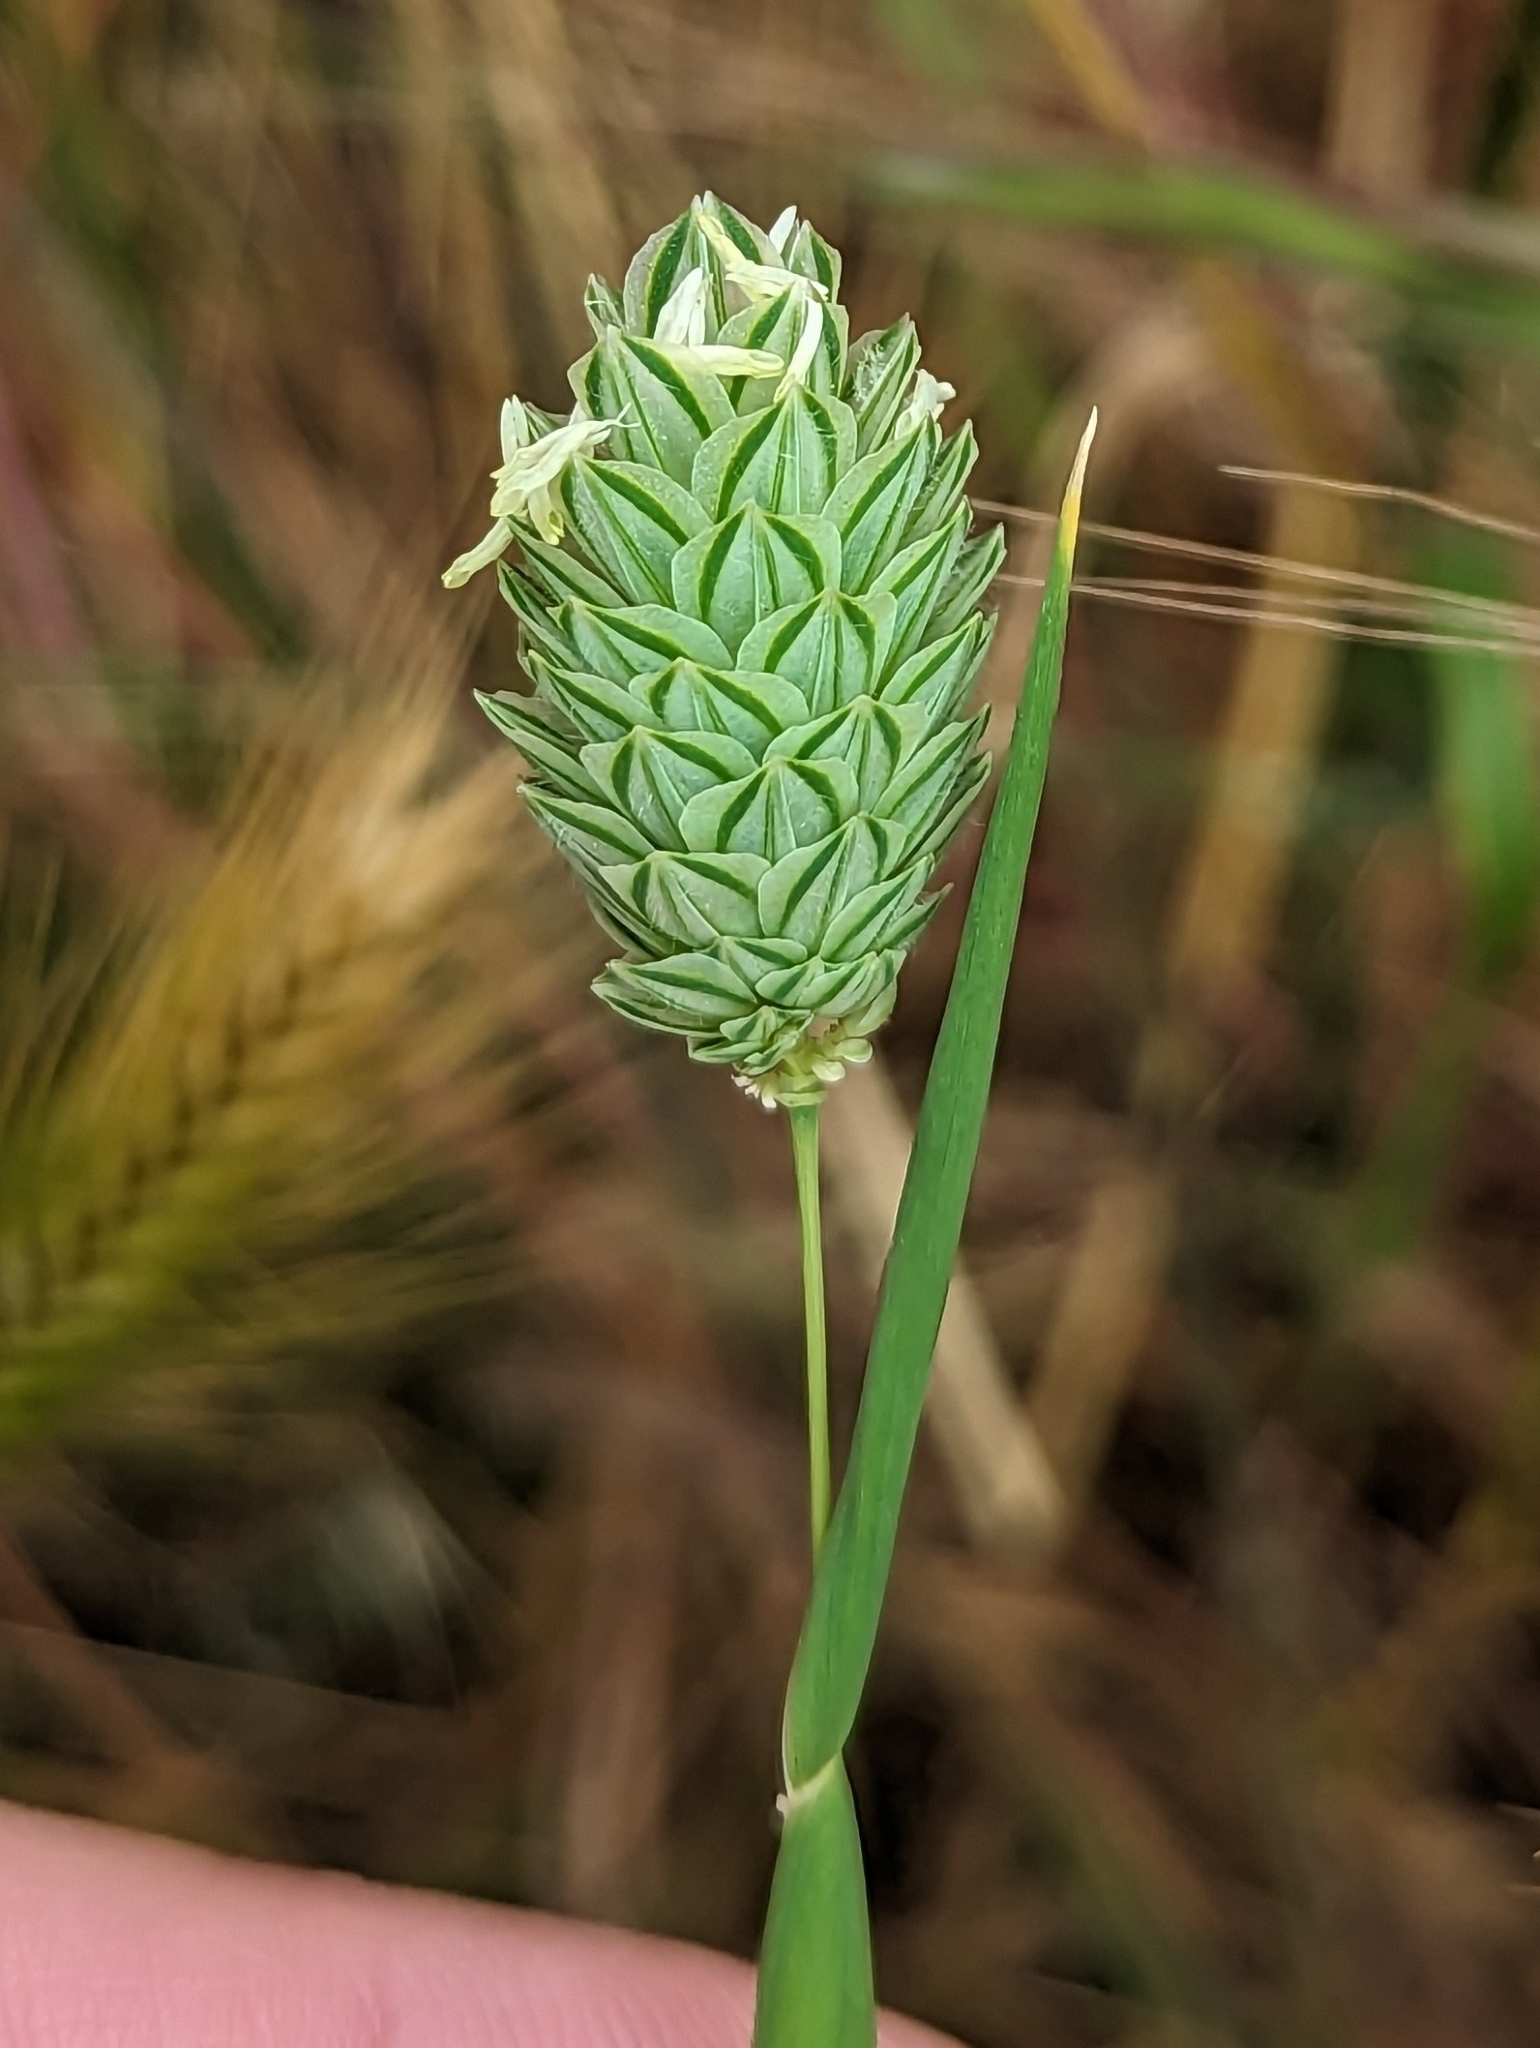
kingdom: Plantae
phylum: Tracheophyta
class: Liliopsida
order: Poales
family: Poaceae
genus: Phalaris
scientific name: Phalaris canariensis
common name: Annual canarygrass
